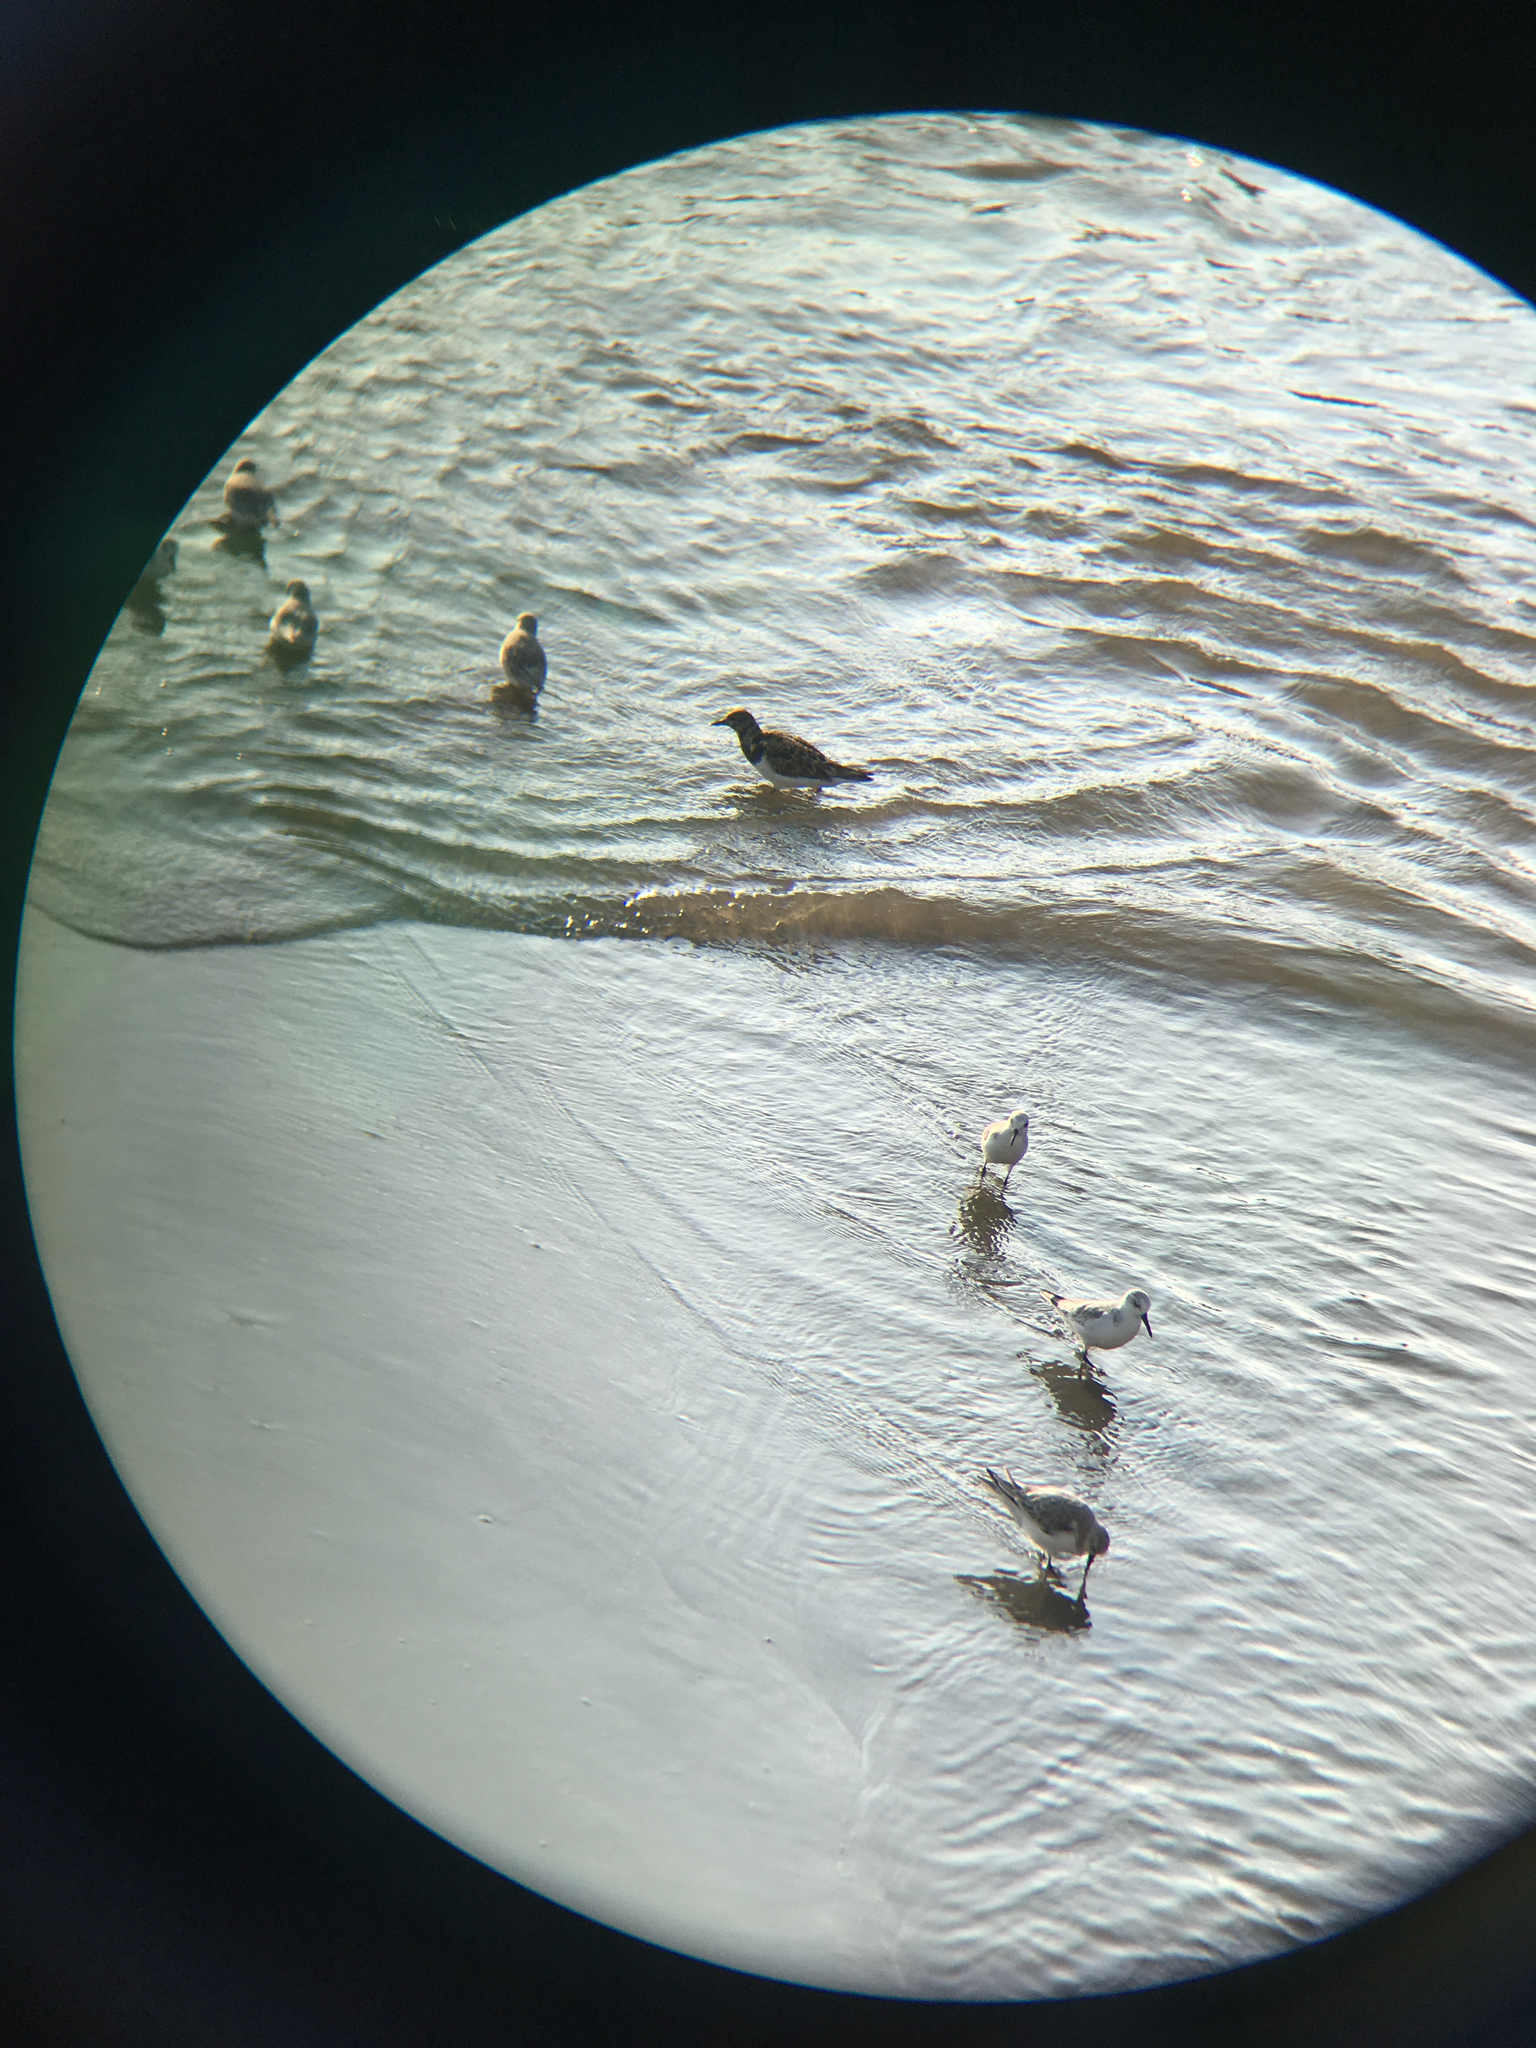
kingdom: Animalia
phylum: Chordata
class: Aves
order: Charadriiformes
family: Scolopacidae
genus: Arenaria
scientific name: Arenaria interpres
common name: Ruddy turnstone
